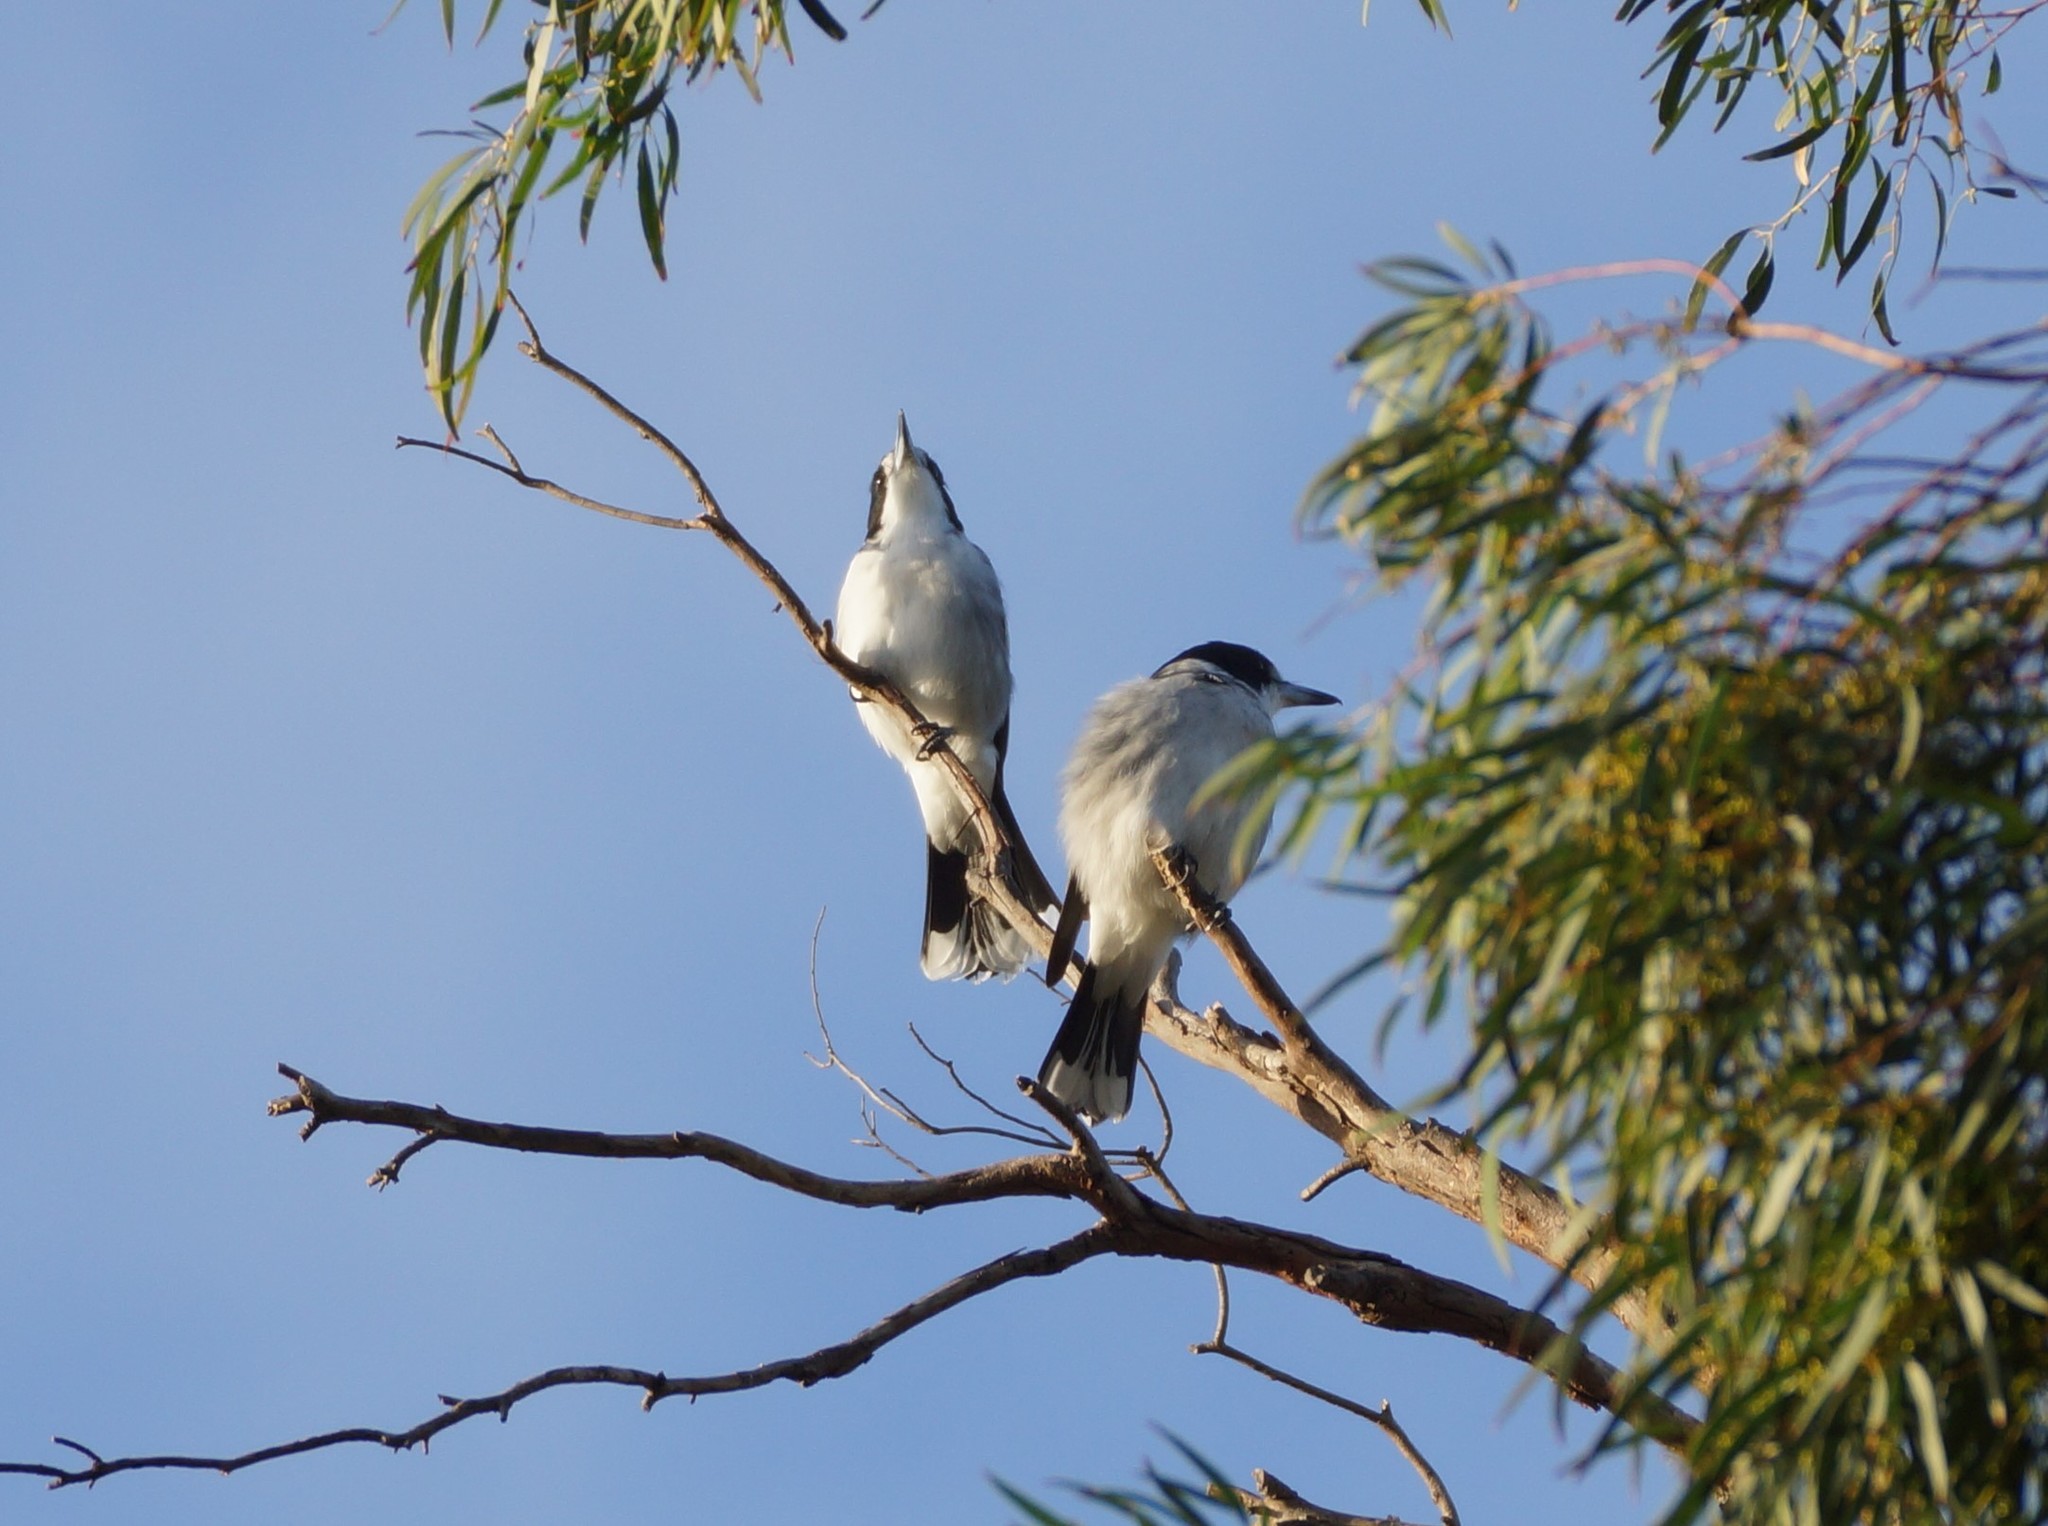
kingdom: Animalia
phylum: Chordata
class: Aves
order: Passeriformes
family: Cracticidae
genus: Cracticus
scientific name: Cracticus torquatus
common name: Grey butcherbird
